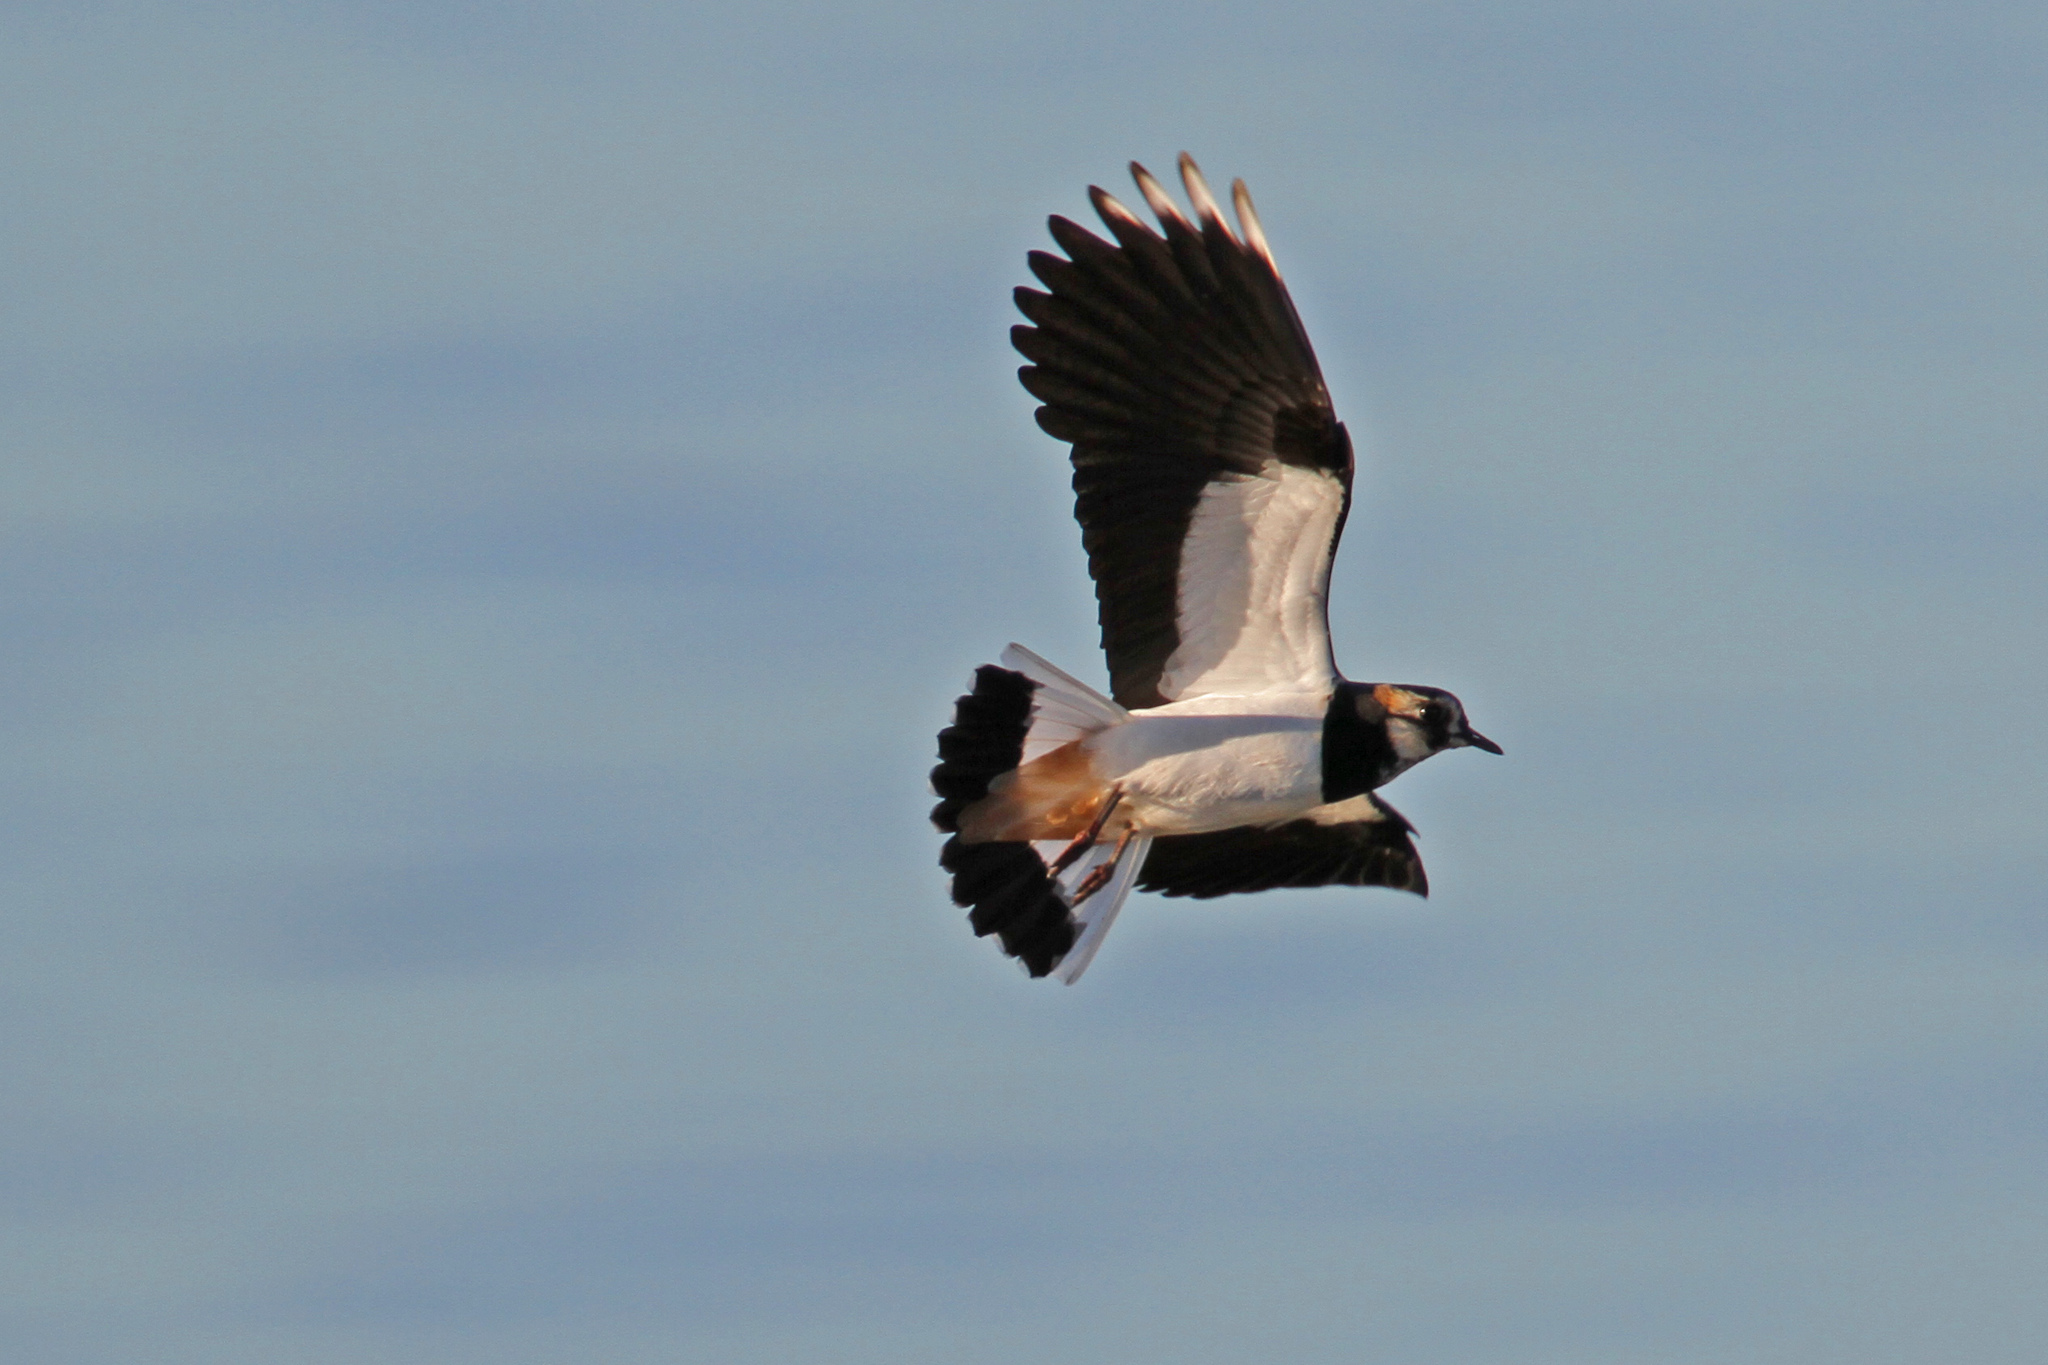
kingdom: Animalia
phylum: Chordata
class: Aves
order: Charadriiformes
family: Charadriidae
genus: Vanellus
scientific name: Vanellus vanellus
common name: Northern lapwing
